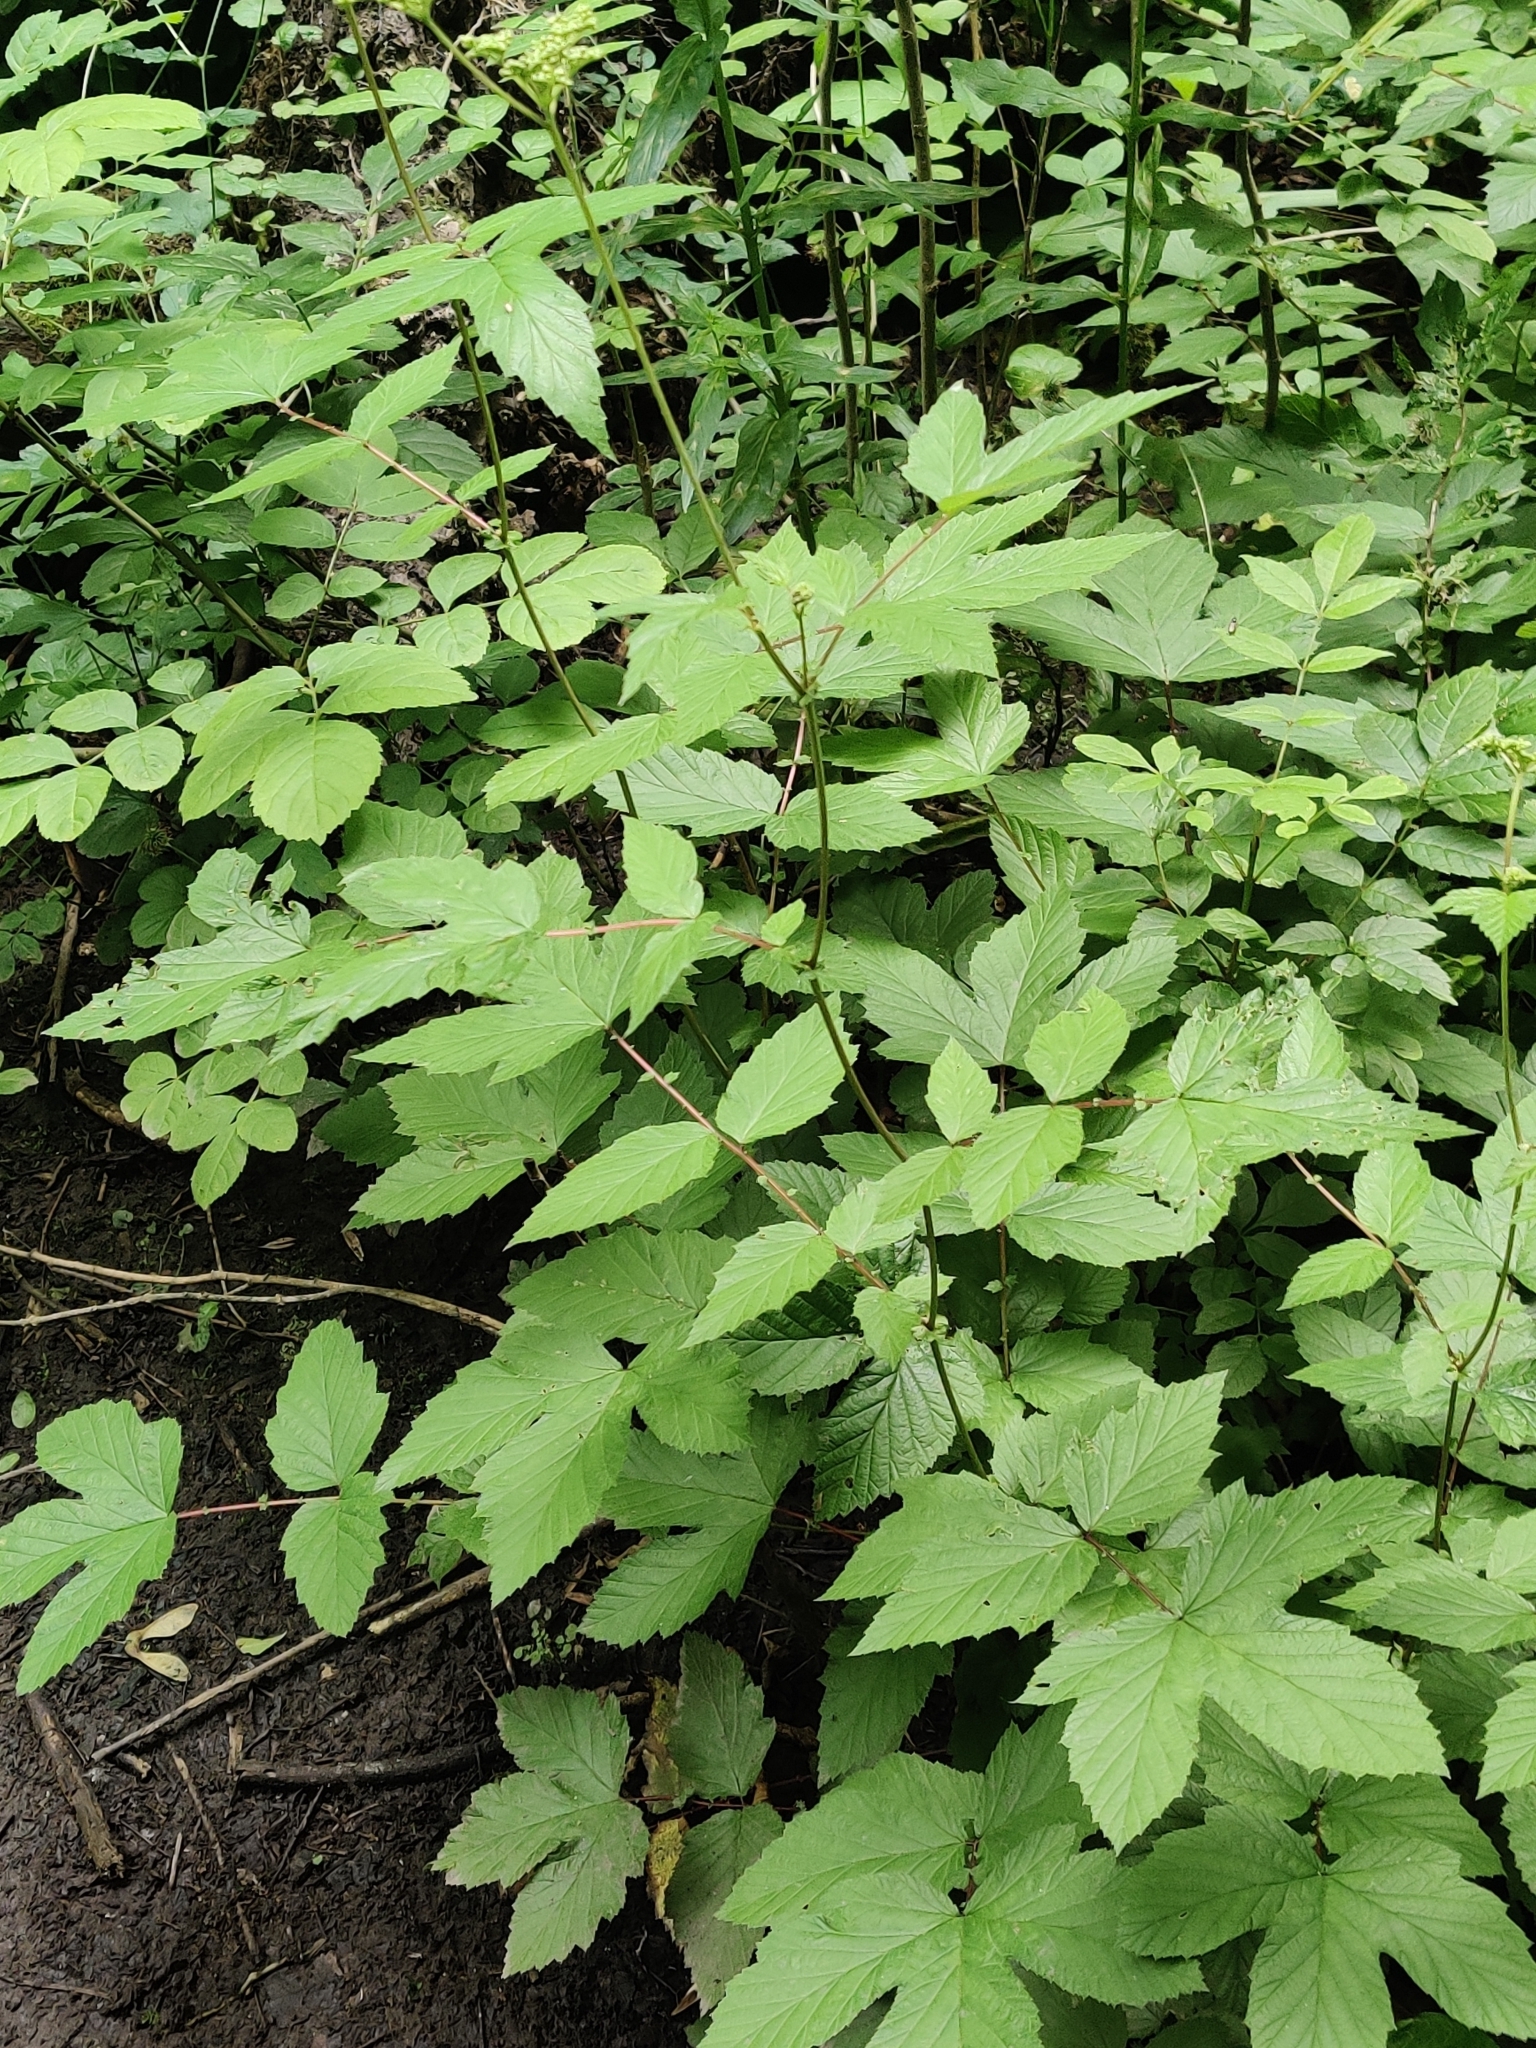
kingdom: Plantae
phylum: Tracheophyta
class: Magnoliopsida
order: Rosales
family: Rosaceae
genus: Filipendula
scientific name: Filipendula ulmaria
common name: Meadowsweet
